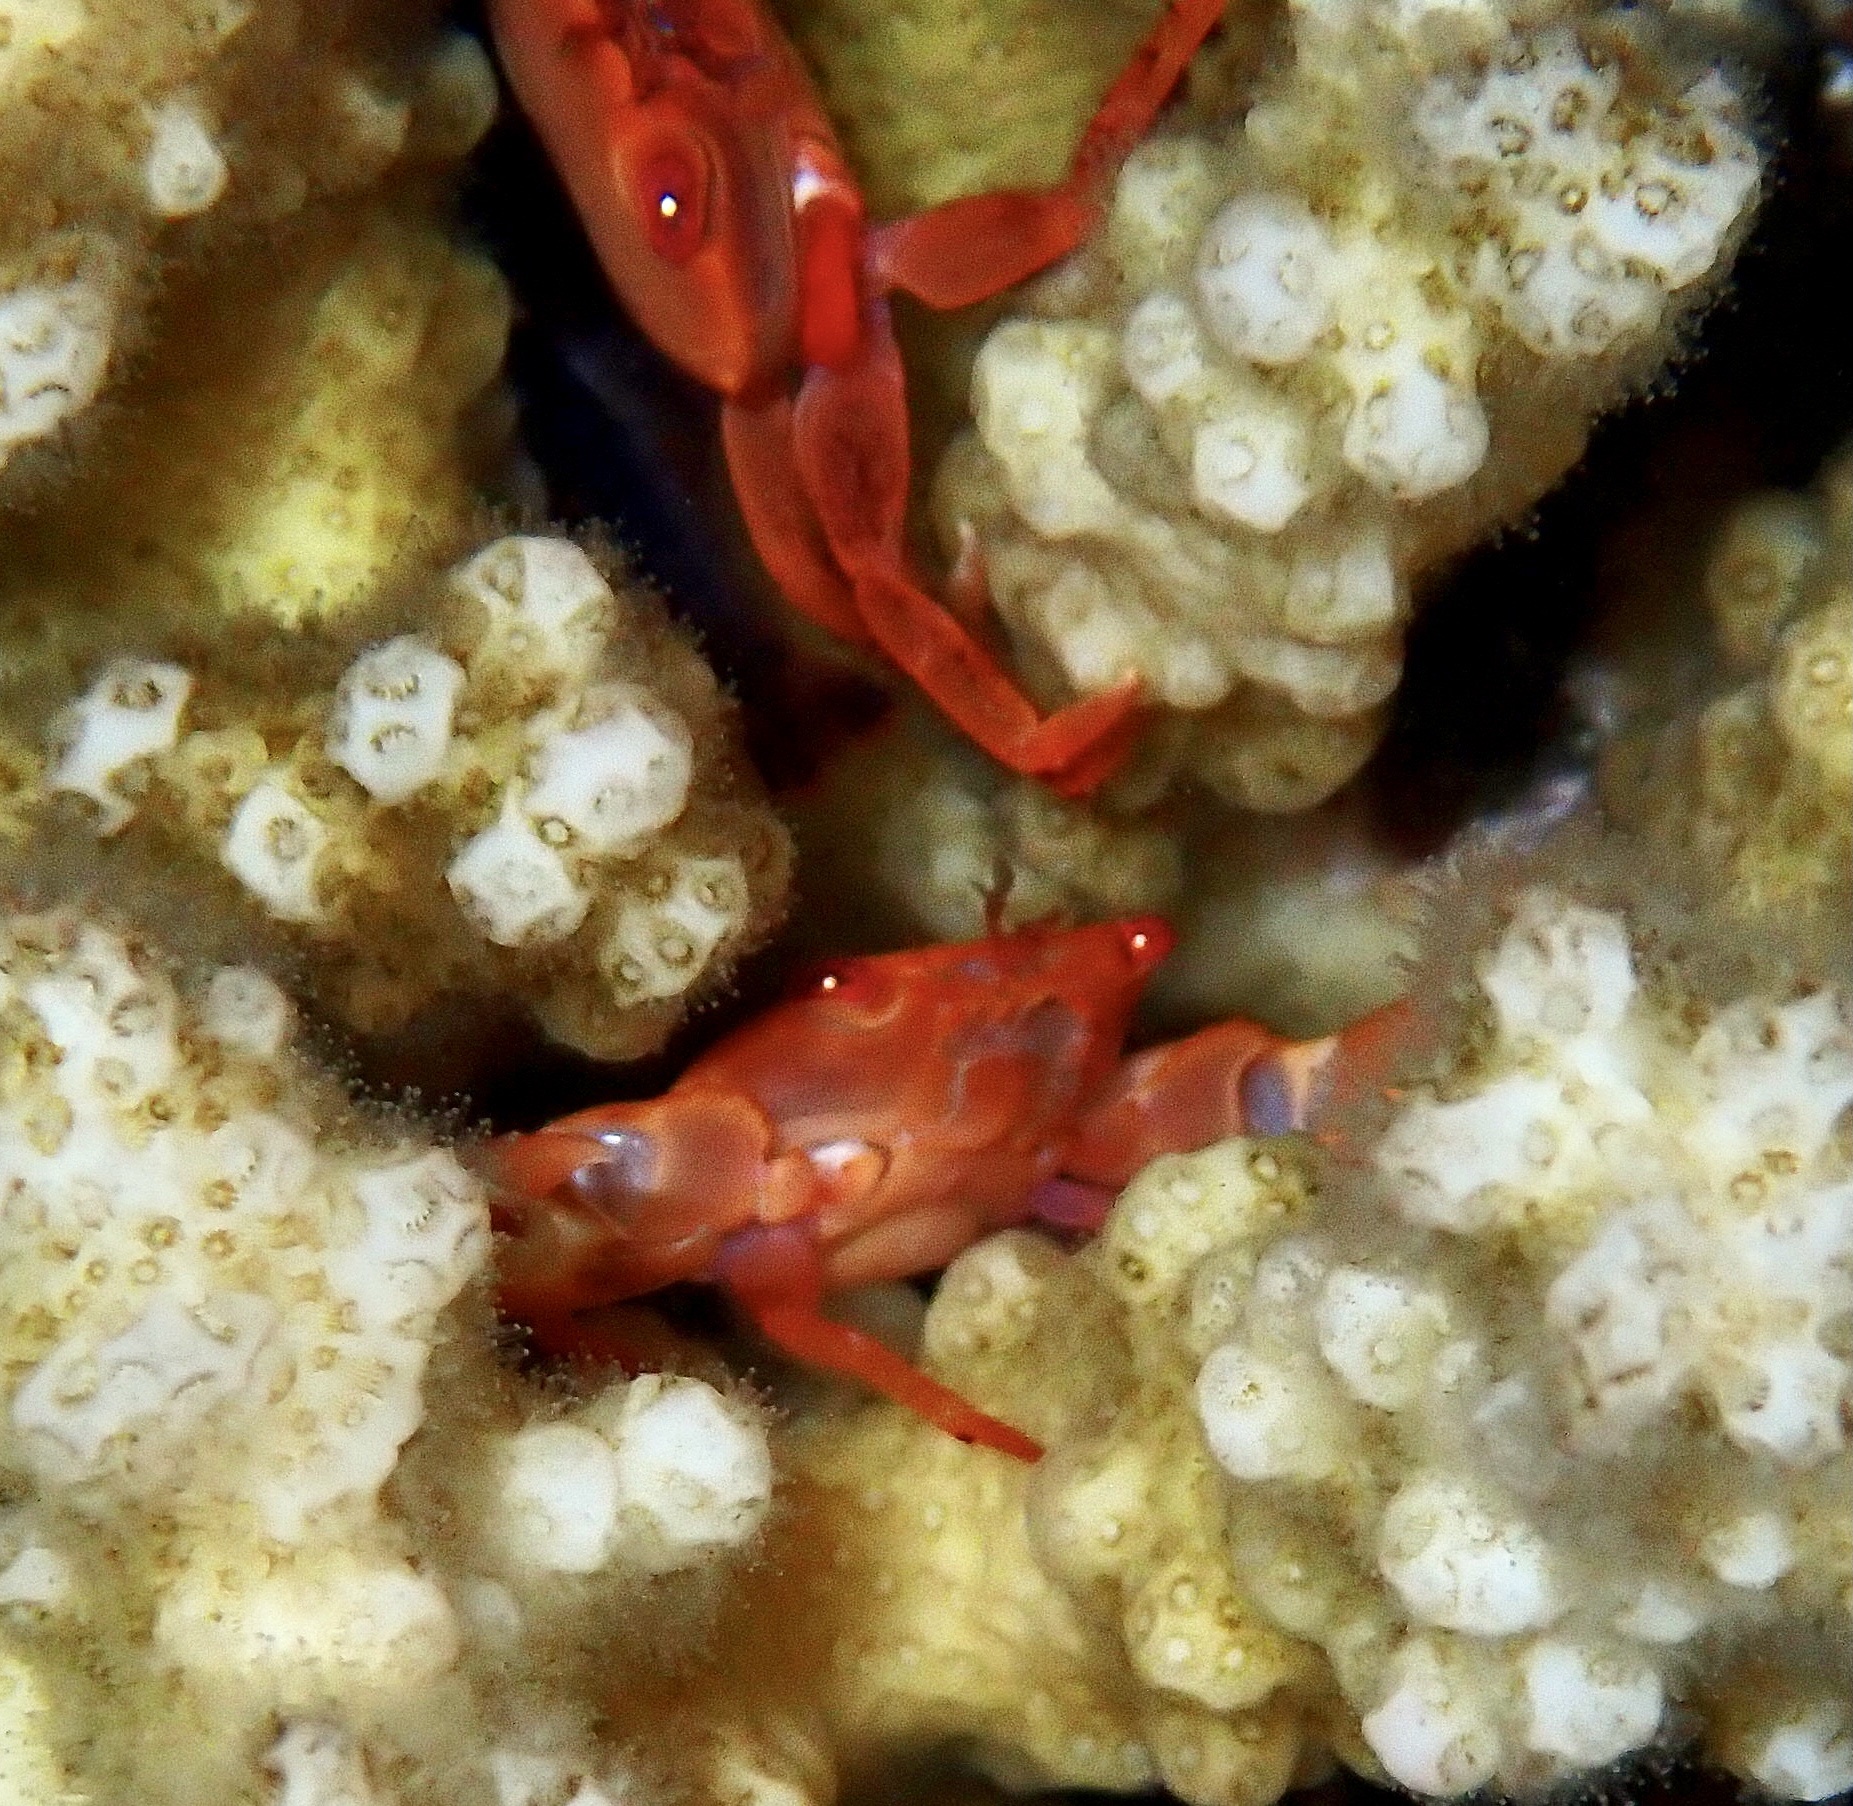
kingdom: Animalia
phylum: Arthropoda
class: Malacostraca
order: Decapoda
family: Trapeziidae
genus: Trapezia
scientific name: Trapezia bidentata
